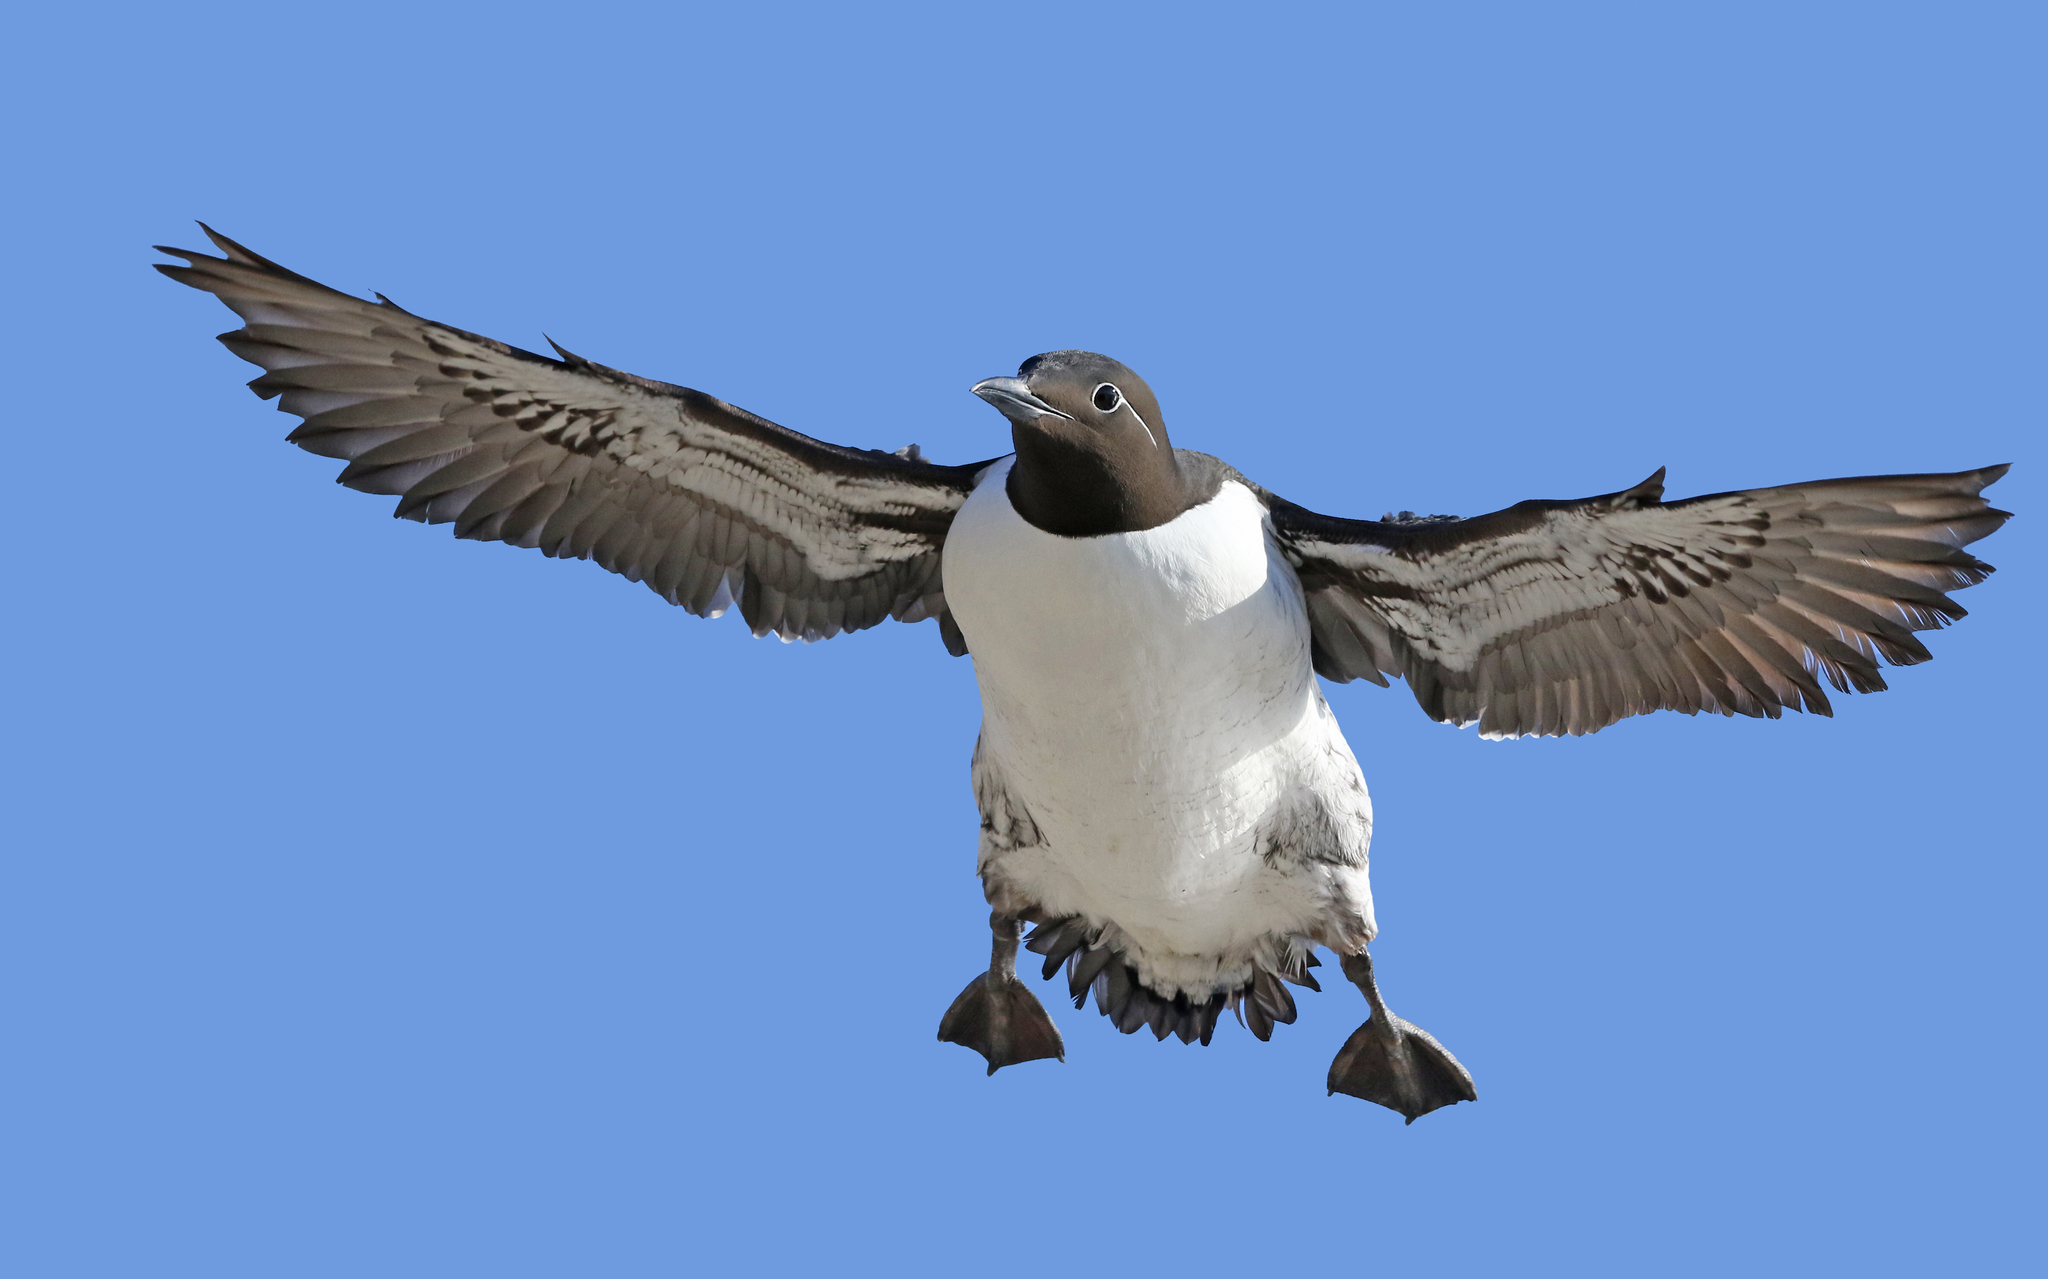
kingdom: Animalia
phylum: Chordata
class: Aves
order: Charadriiformes
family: Alcidae
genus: Uria
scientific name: Uria aalge
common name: Common murre
